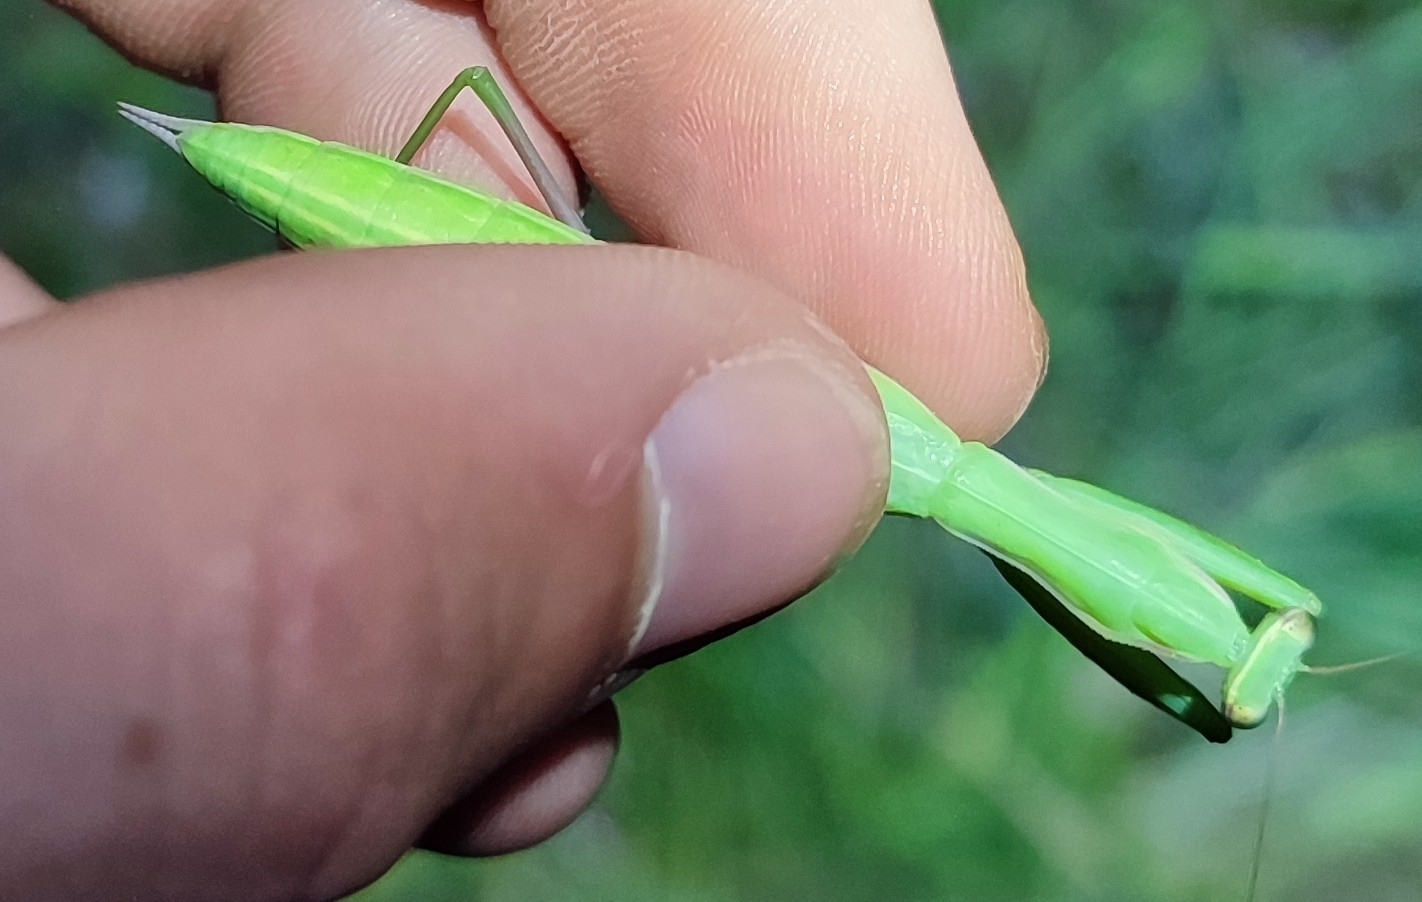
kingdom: Animalia
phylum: Arthropoda
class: Insecta
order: Mantodea
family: Mantidae
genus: Mantis
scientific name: Mantis religiosa
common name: Praying mantis
